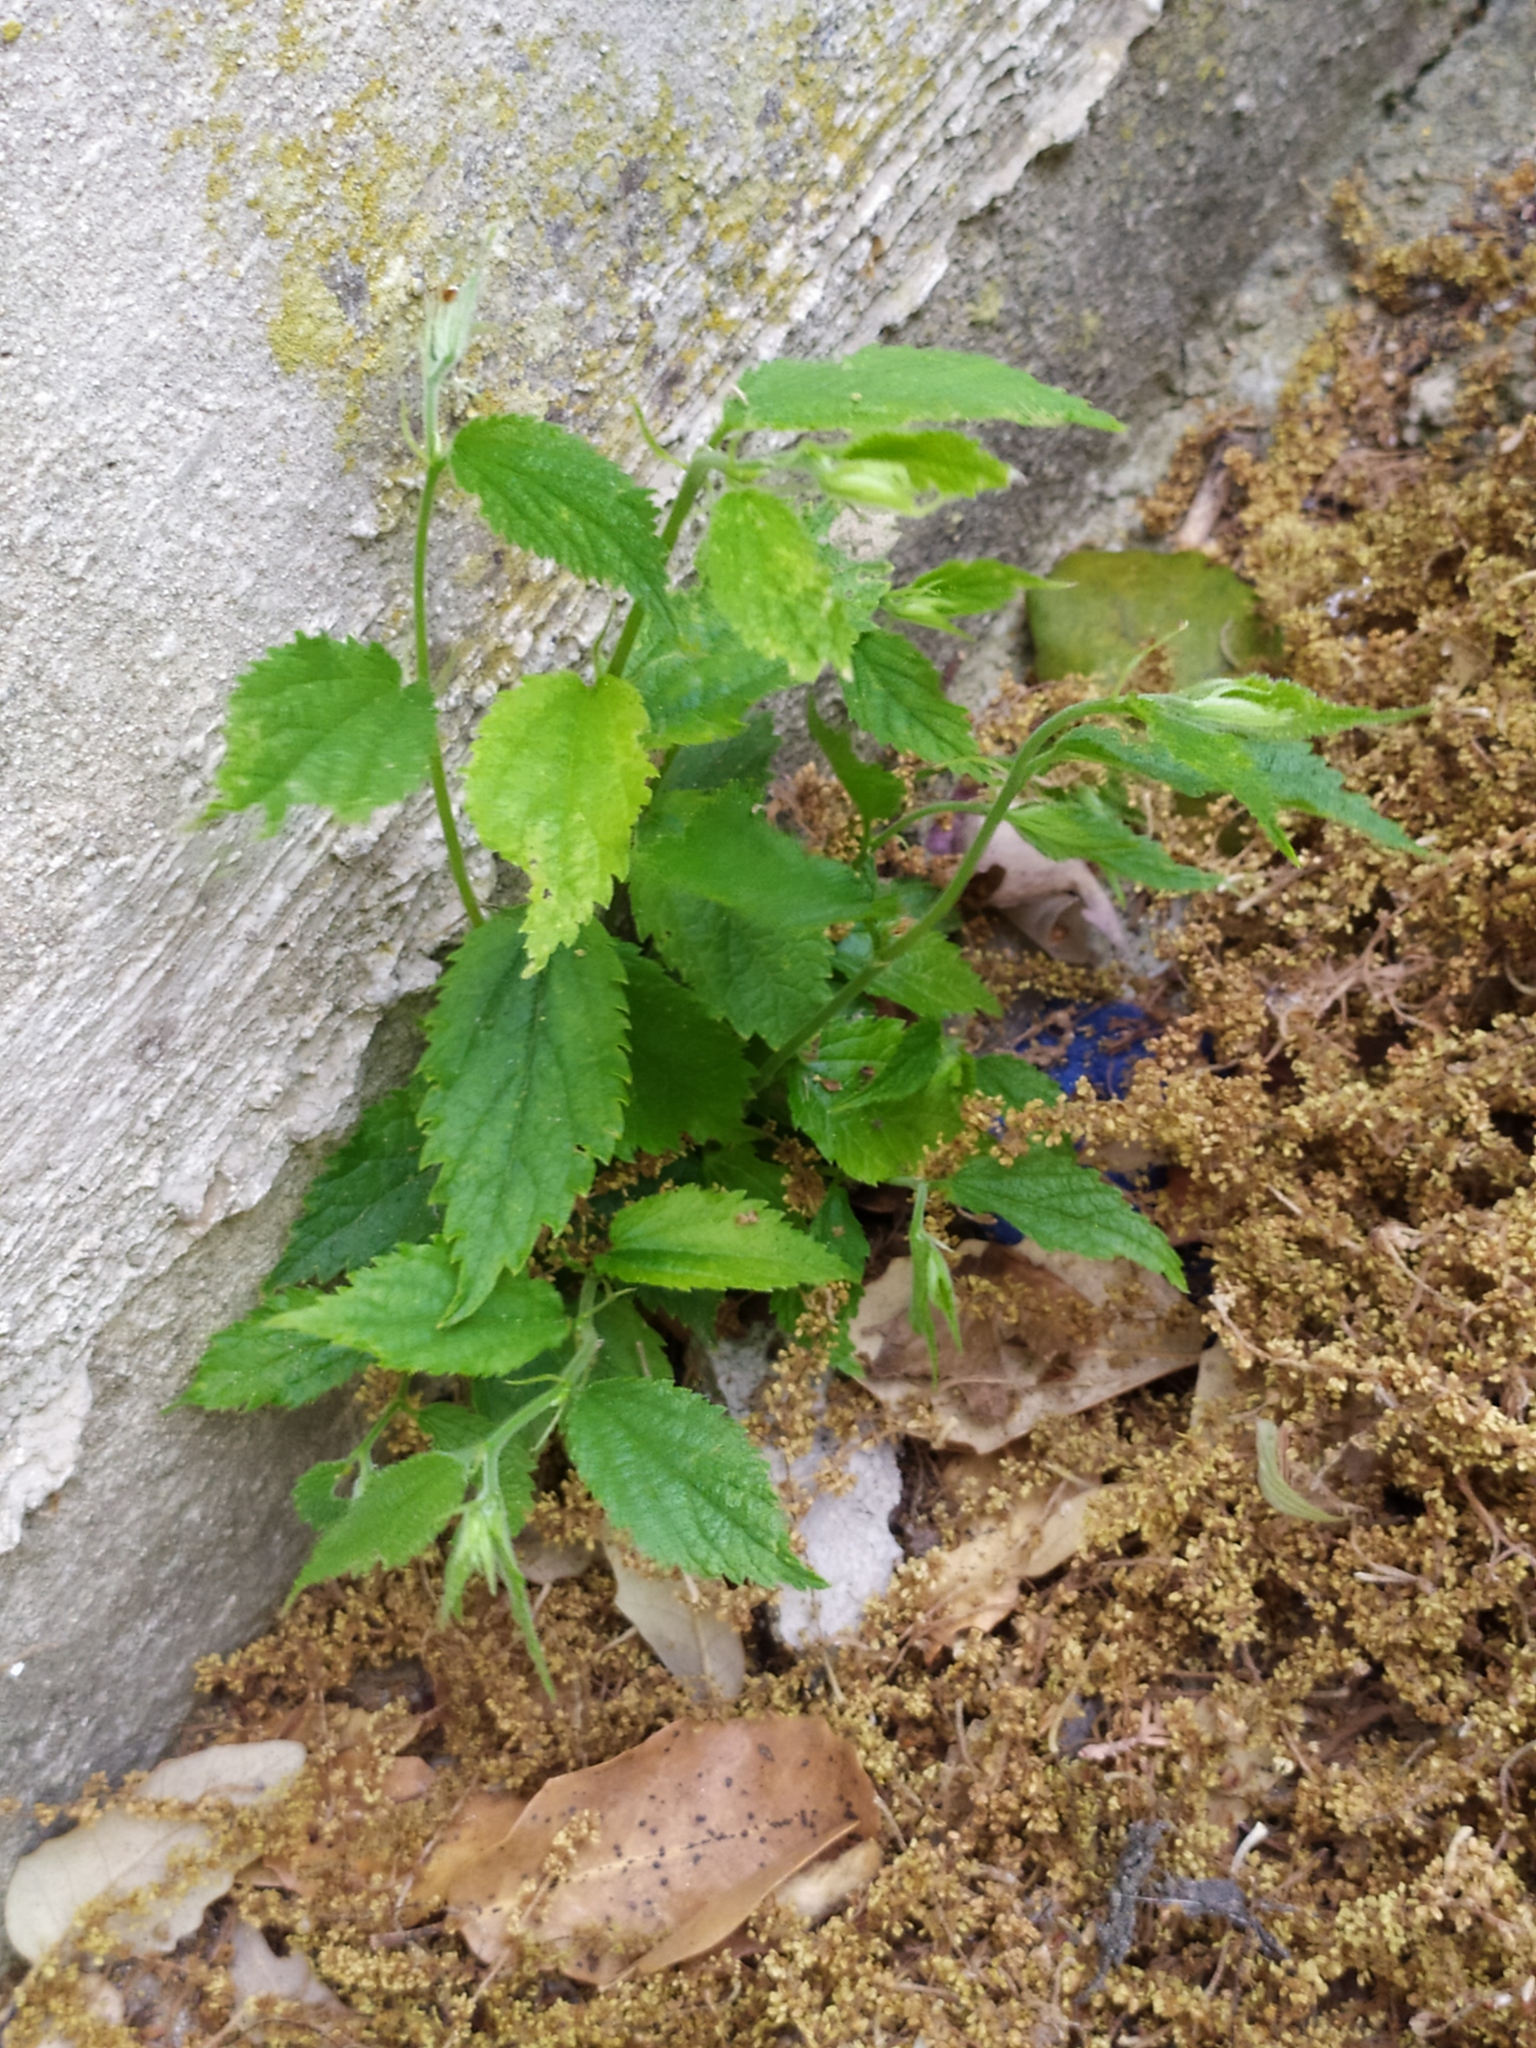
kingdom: Plantae
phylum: Tracheophyta
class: Magnoliopsida
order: Rosales
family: Cannabaceae
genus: Celtis
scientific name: Celtis australis
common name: European hackberry
